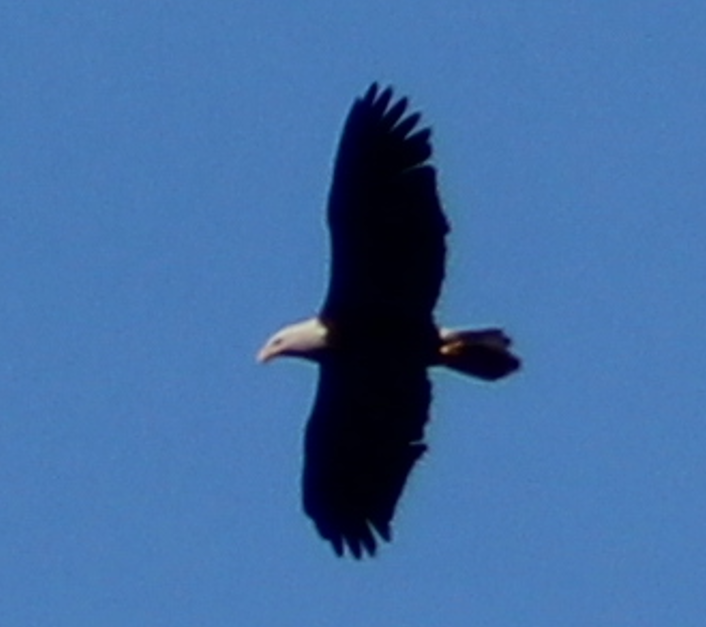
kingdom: Animalia
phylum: Chordata
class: Aves
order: Accipitriformes
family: Accipitridae
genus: Haliaeetus
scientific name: Haliaeetus leucocephalus
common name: Bald eagle
